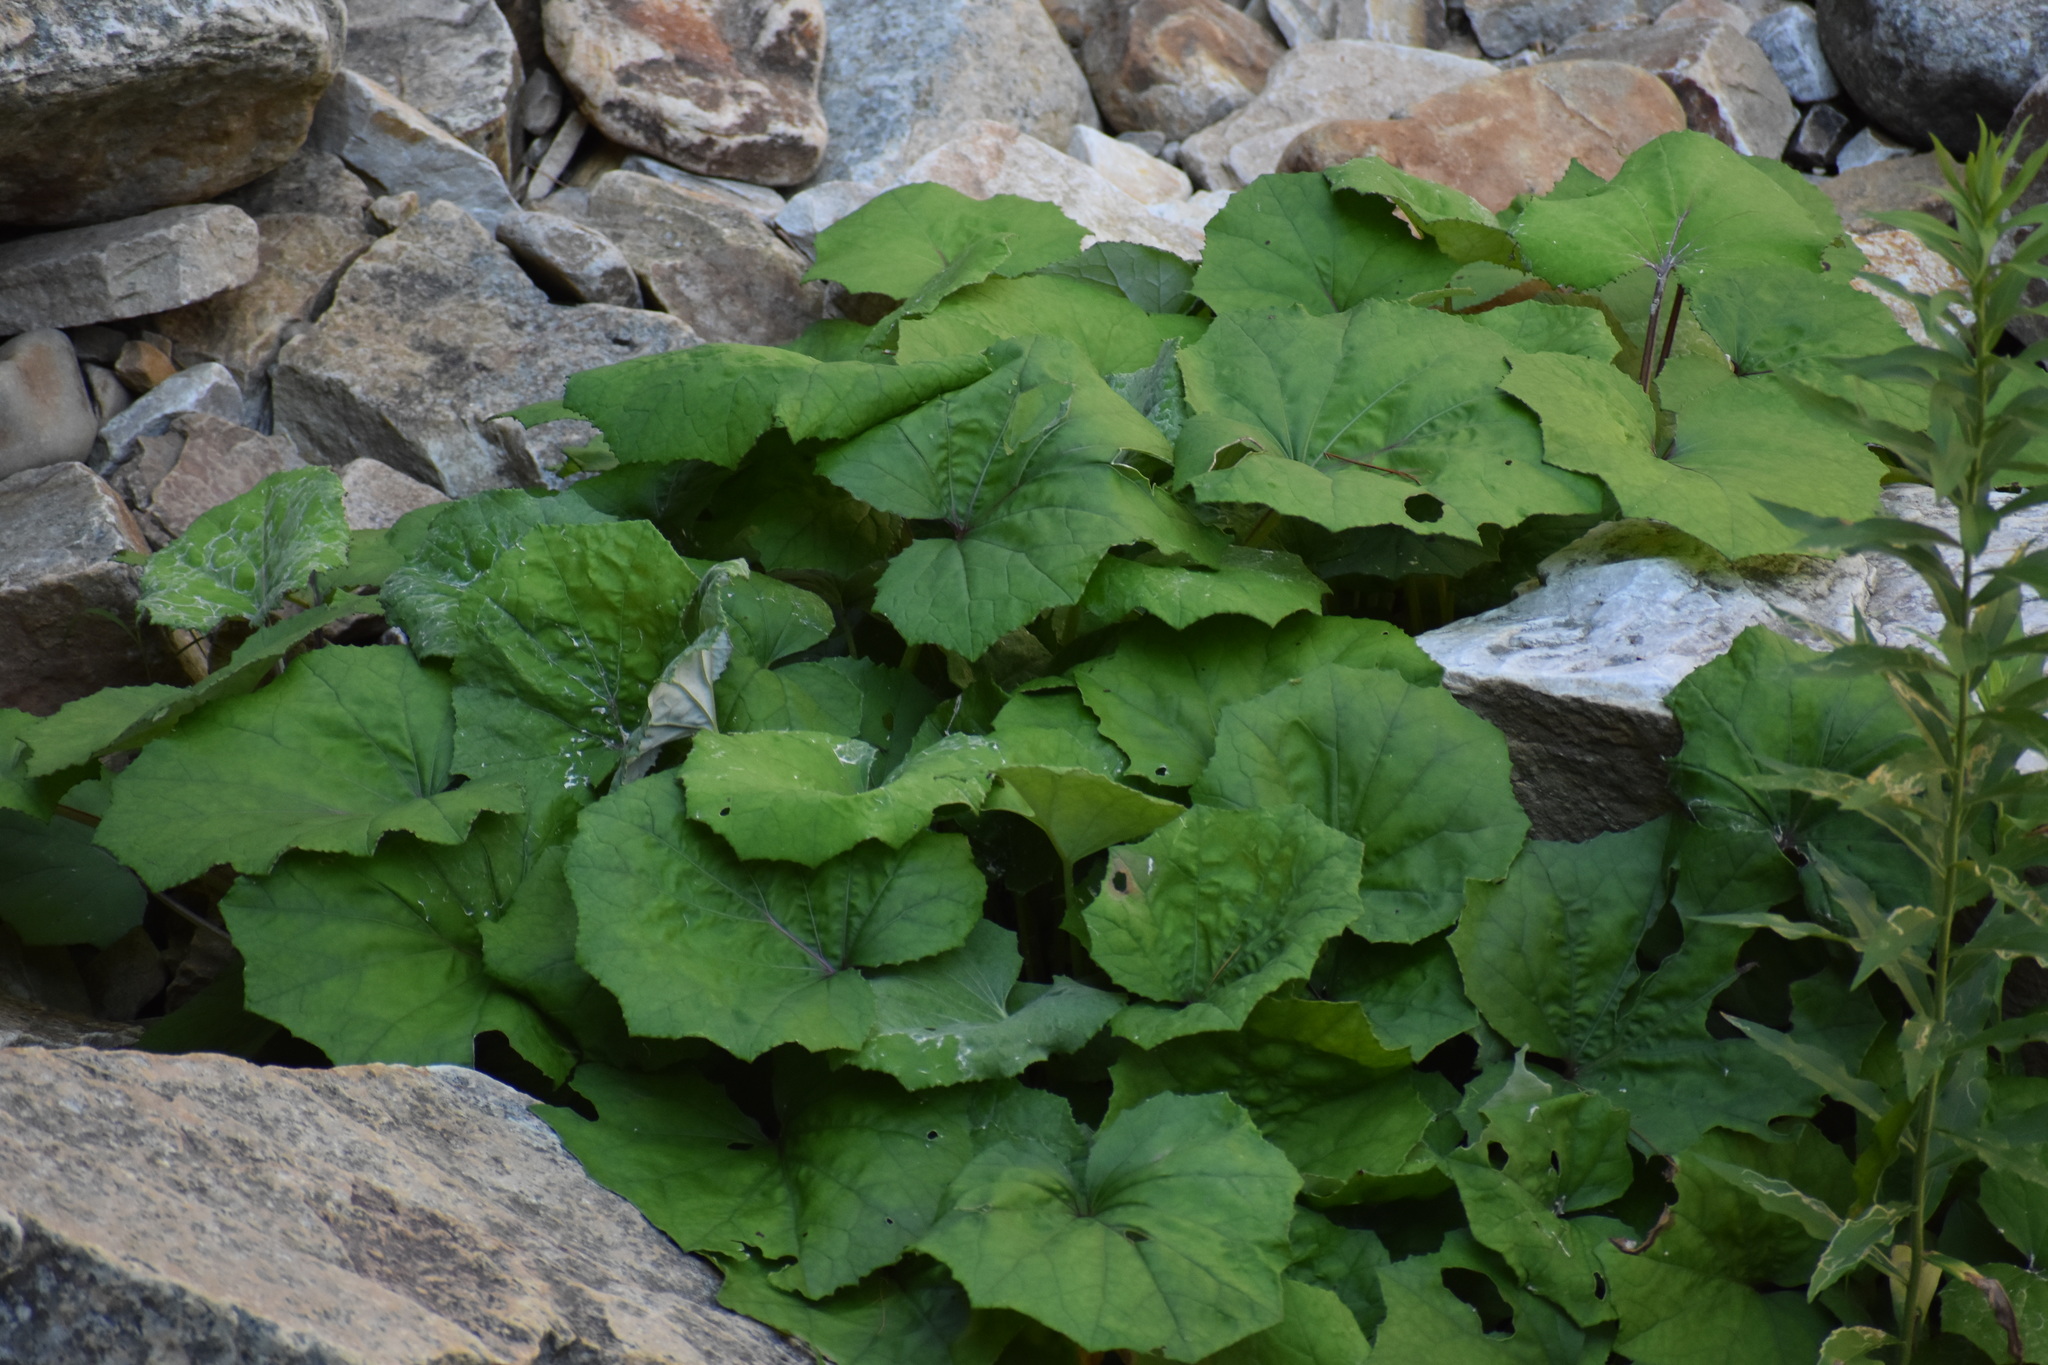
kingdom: Plantae
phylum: Tracheophyta
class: Magnoliopsida
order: Asterales
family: Asteraceae
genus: Tussilago
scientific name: Tussilago farfara
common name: Coltsfoot
